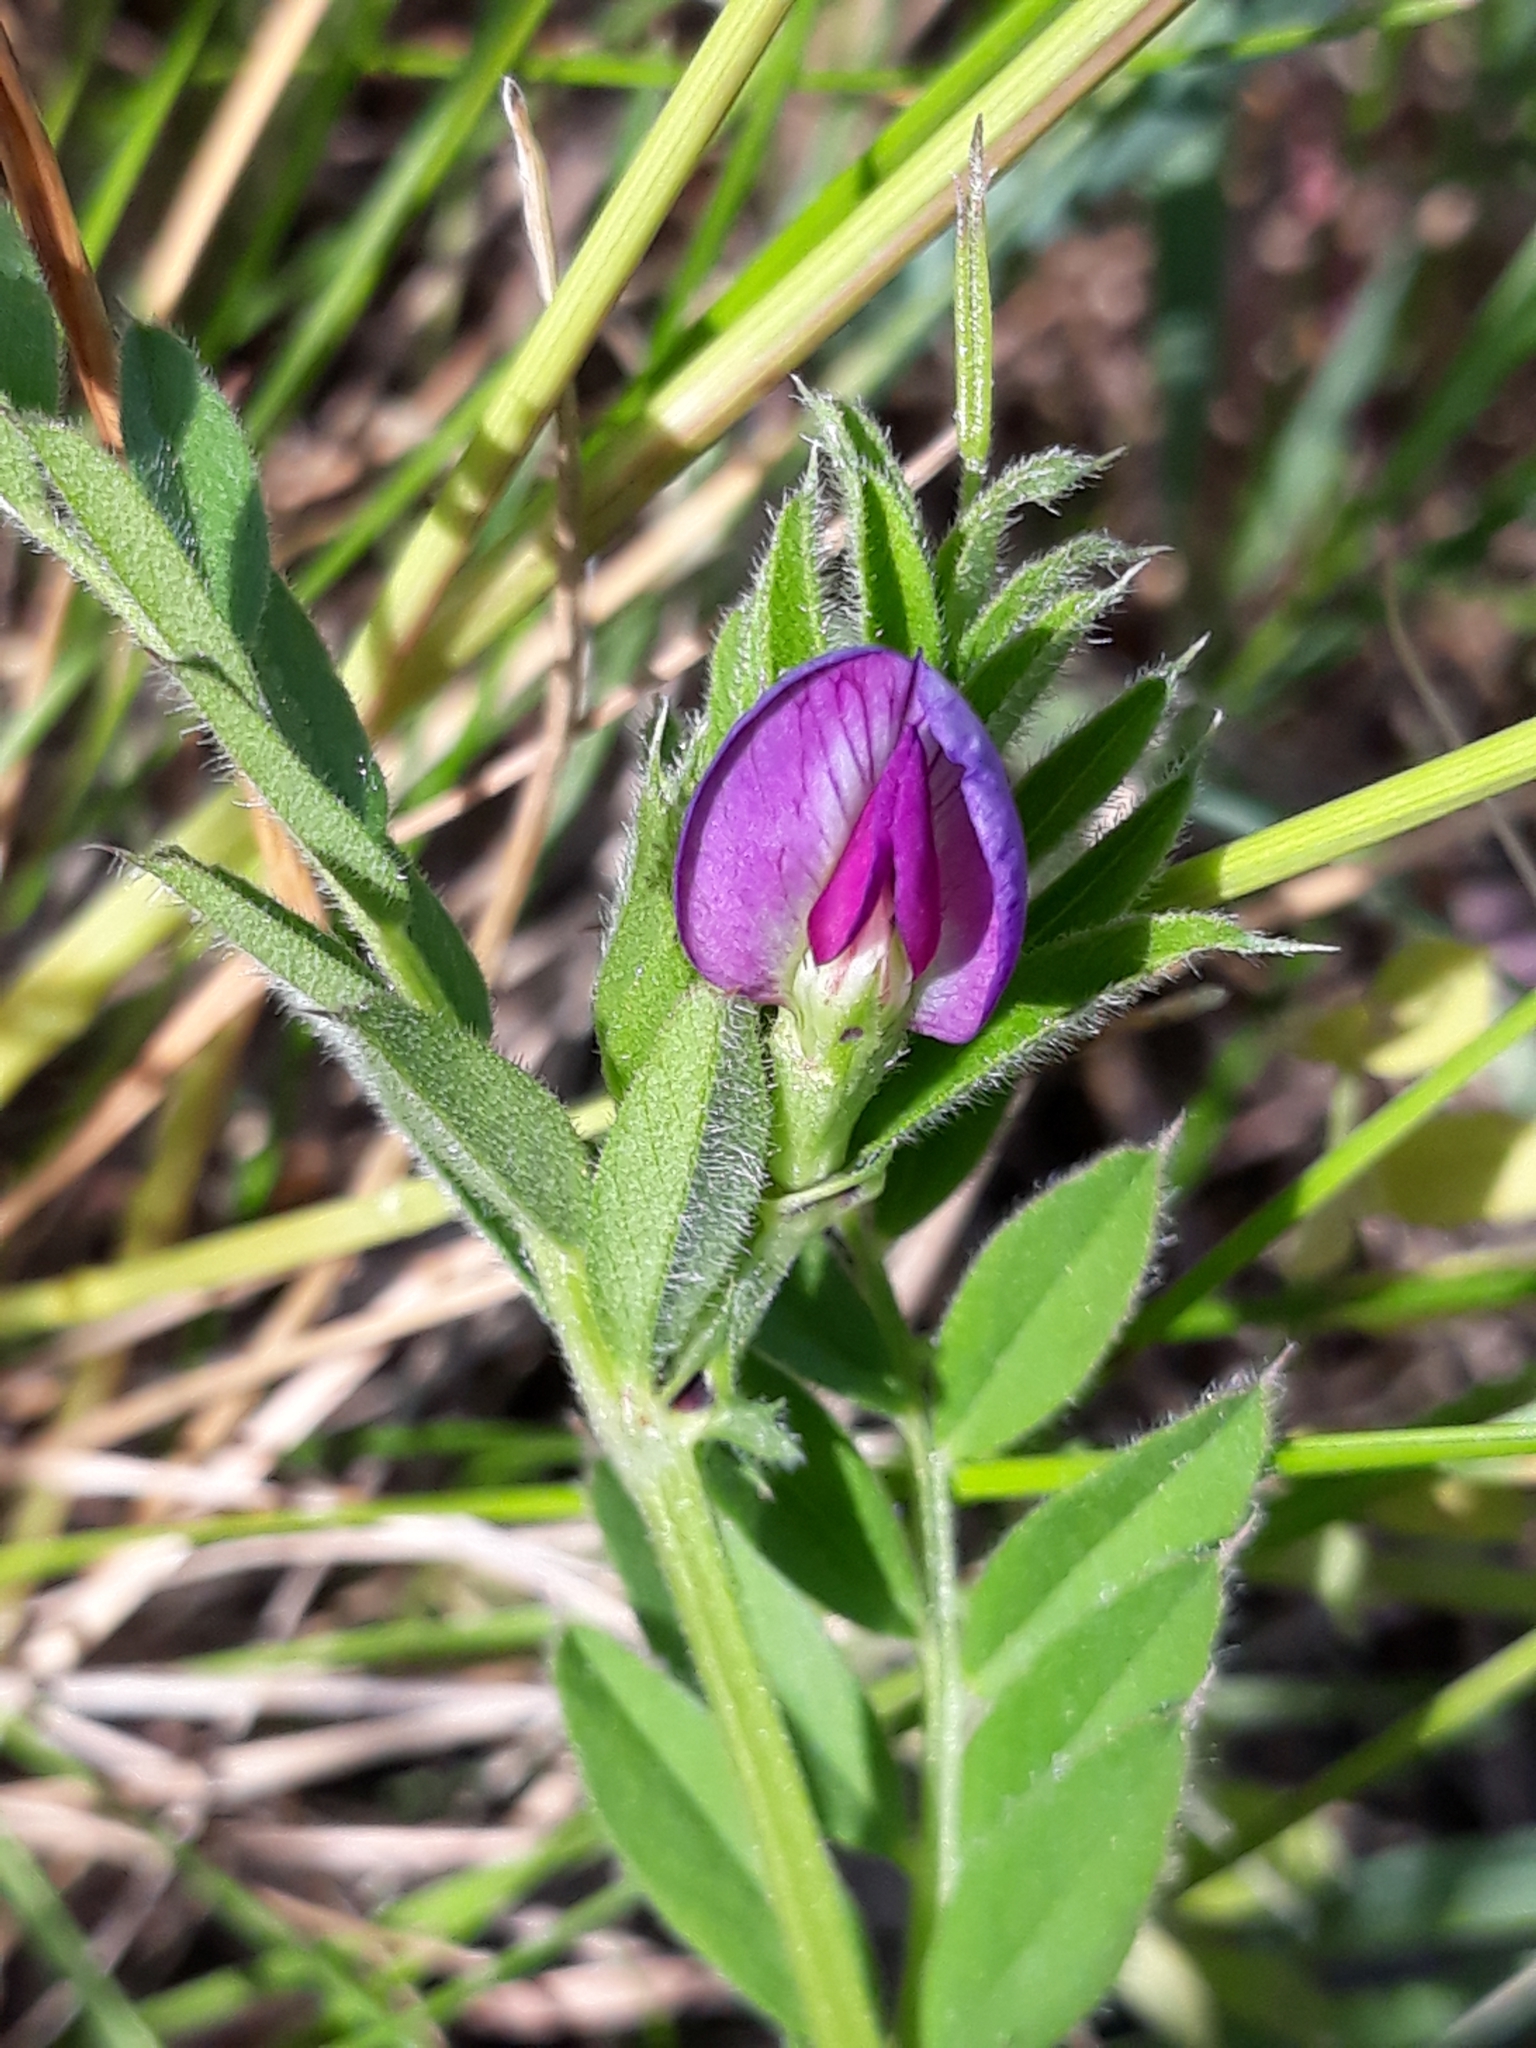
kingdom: Plantae
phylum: Tracheophyta
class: Magnoliopsida
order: Fabales
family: Fabaceae
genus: Vicia
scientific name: Vicia sativa
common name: Garden vetch
